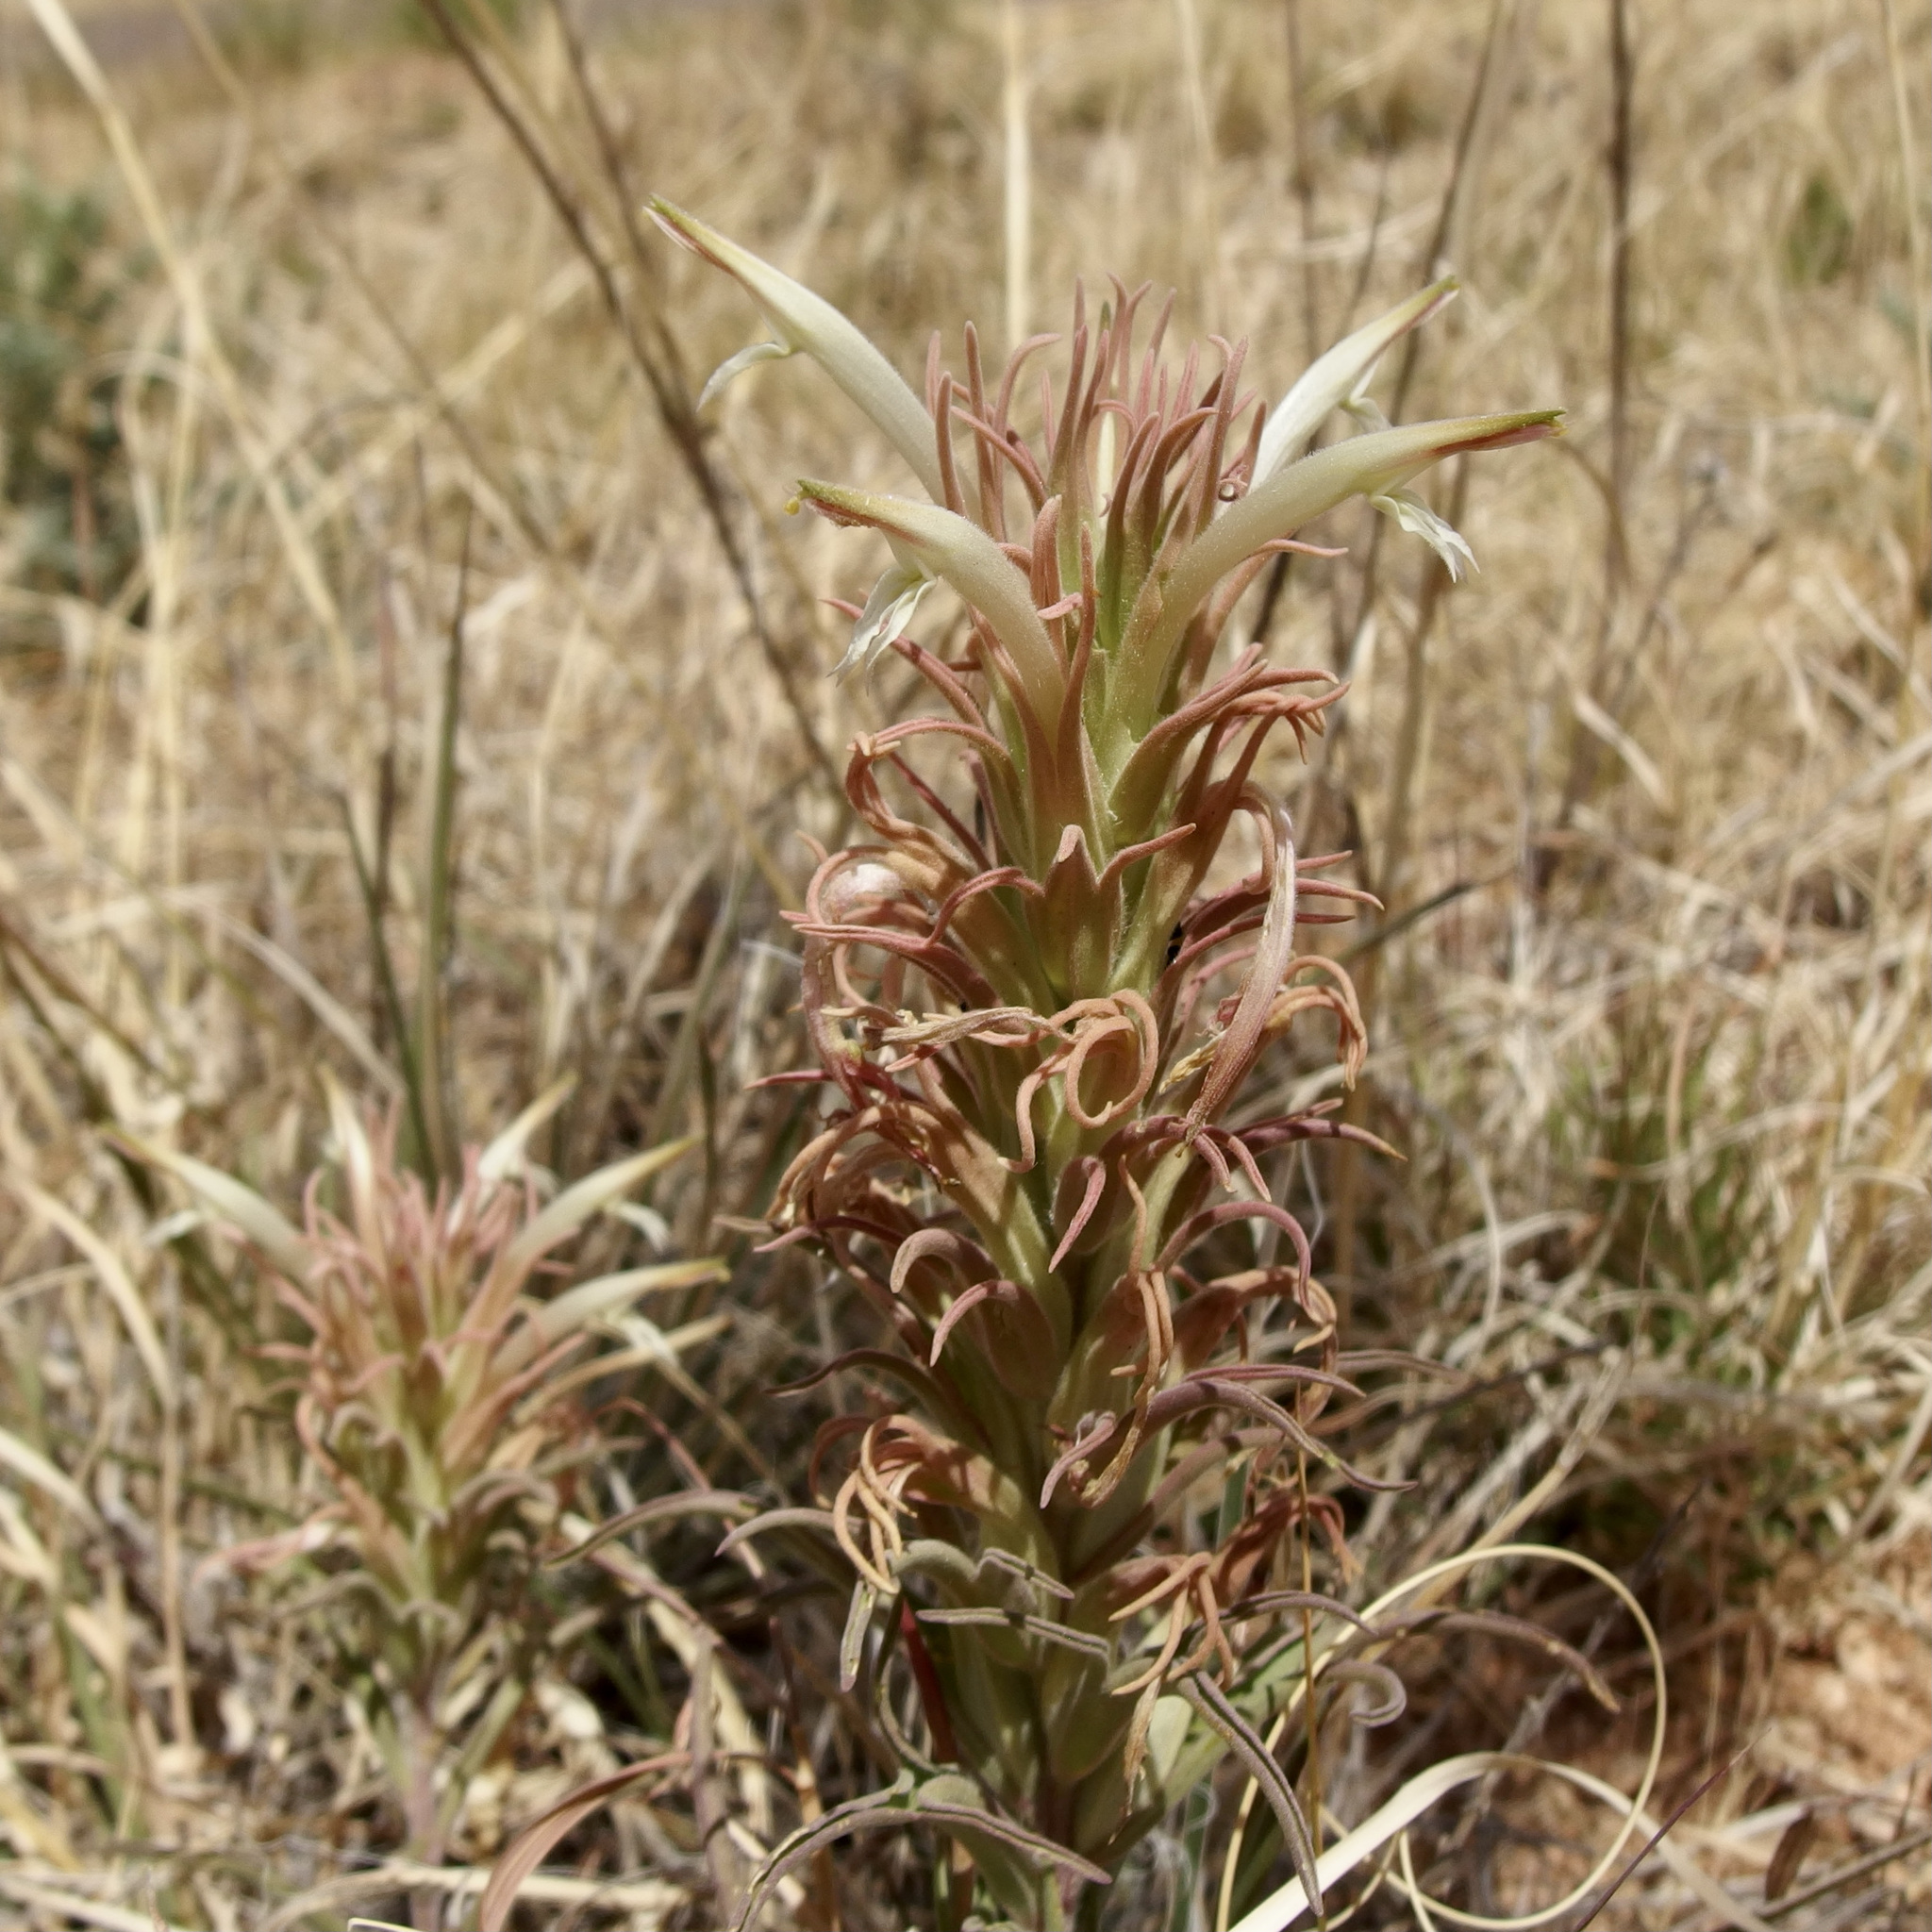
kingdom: Plantae
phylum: Tracheophyta
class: Magnoliopsida
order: Lamiales
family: Orobanchaceae
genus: Castilleja
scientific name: Castilleja sessiliflora
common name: Downy paintbrush
